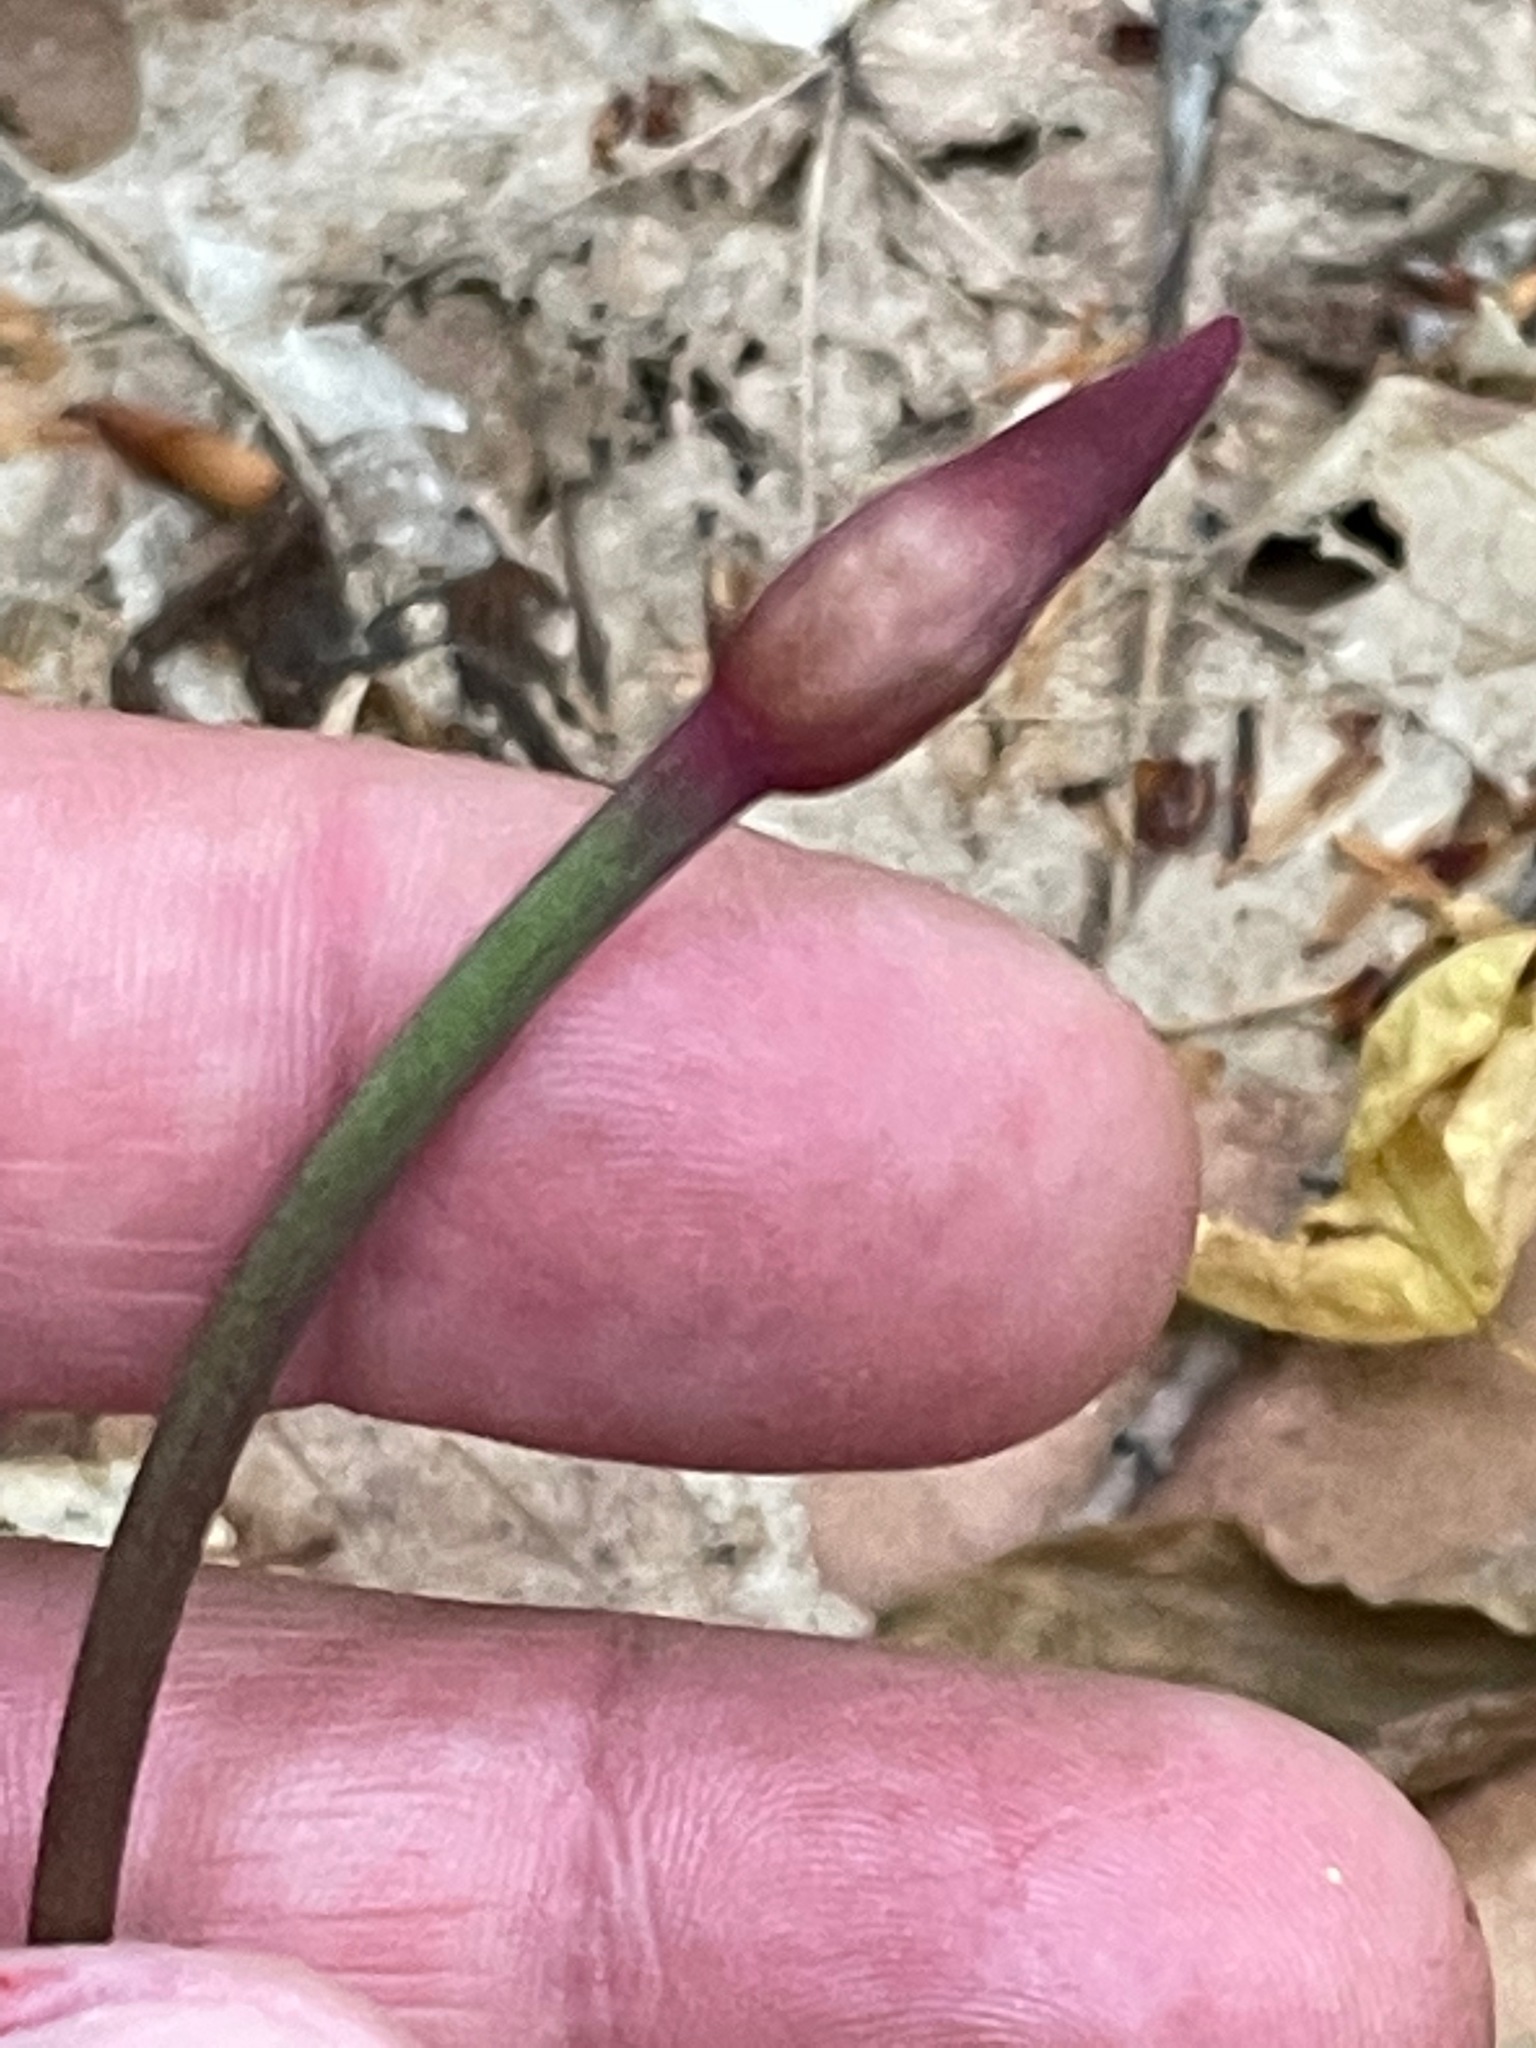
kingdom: Plantae
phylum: Tracheophyta
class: Liliopsida
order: Asparagales
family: Amaryllidaceae
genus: Allium
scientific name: Allium tricoccum
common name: Ramp
